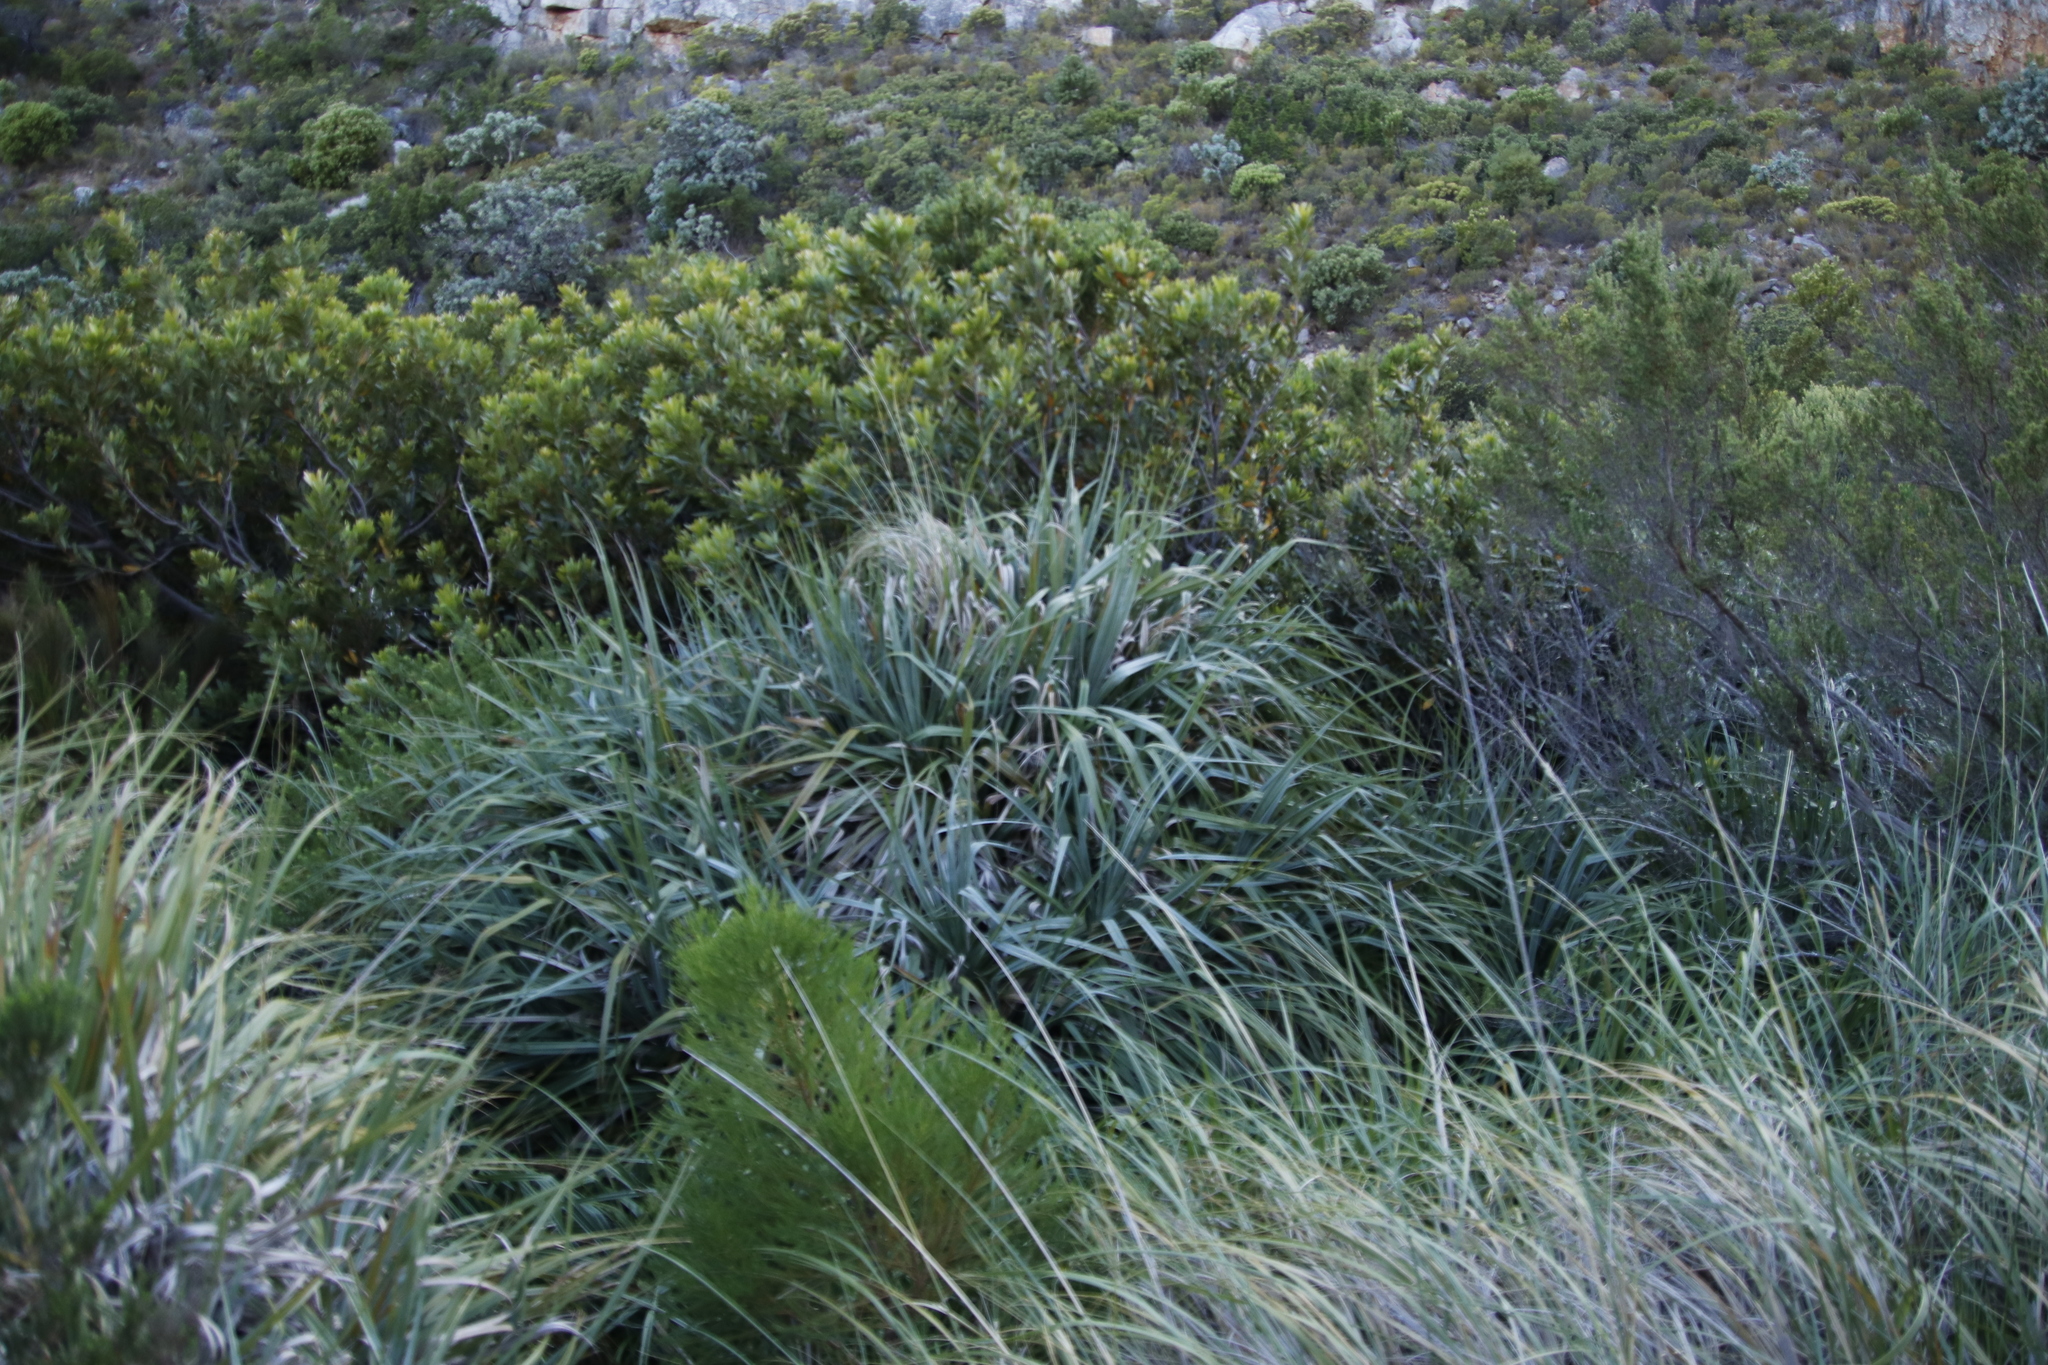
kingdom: Plantae
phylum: Tracheophyta
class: Liliopsida
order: Poales
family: Thurniaceae
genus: Prionium
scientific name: Prionium serratum
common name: Palmiet
